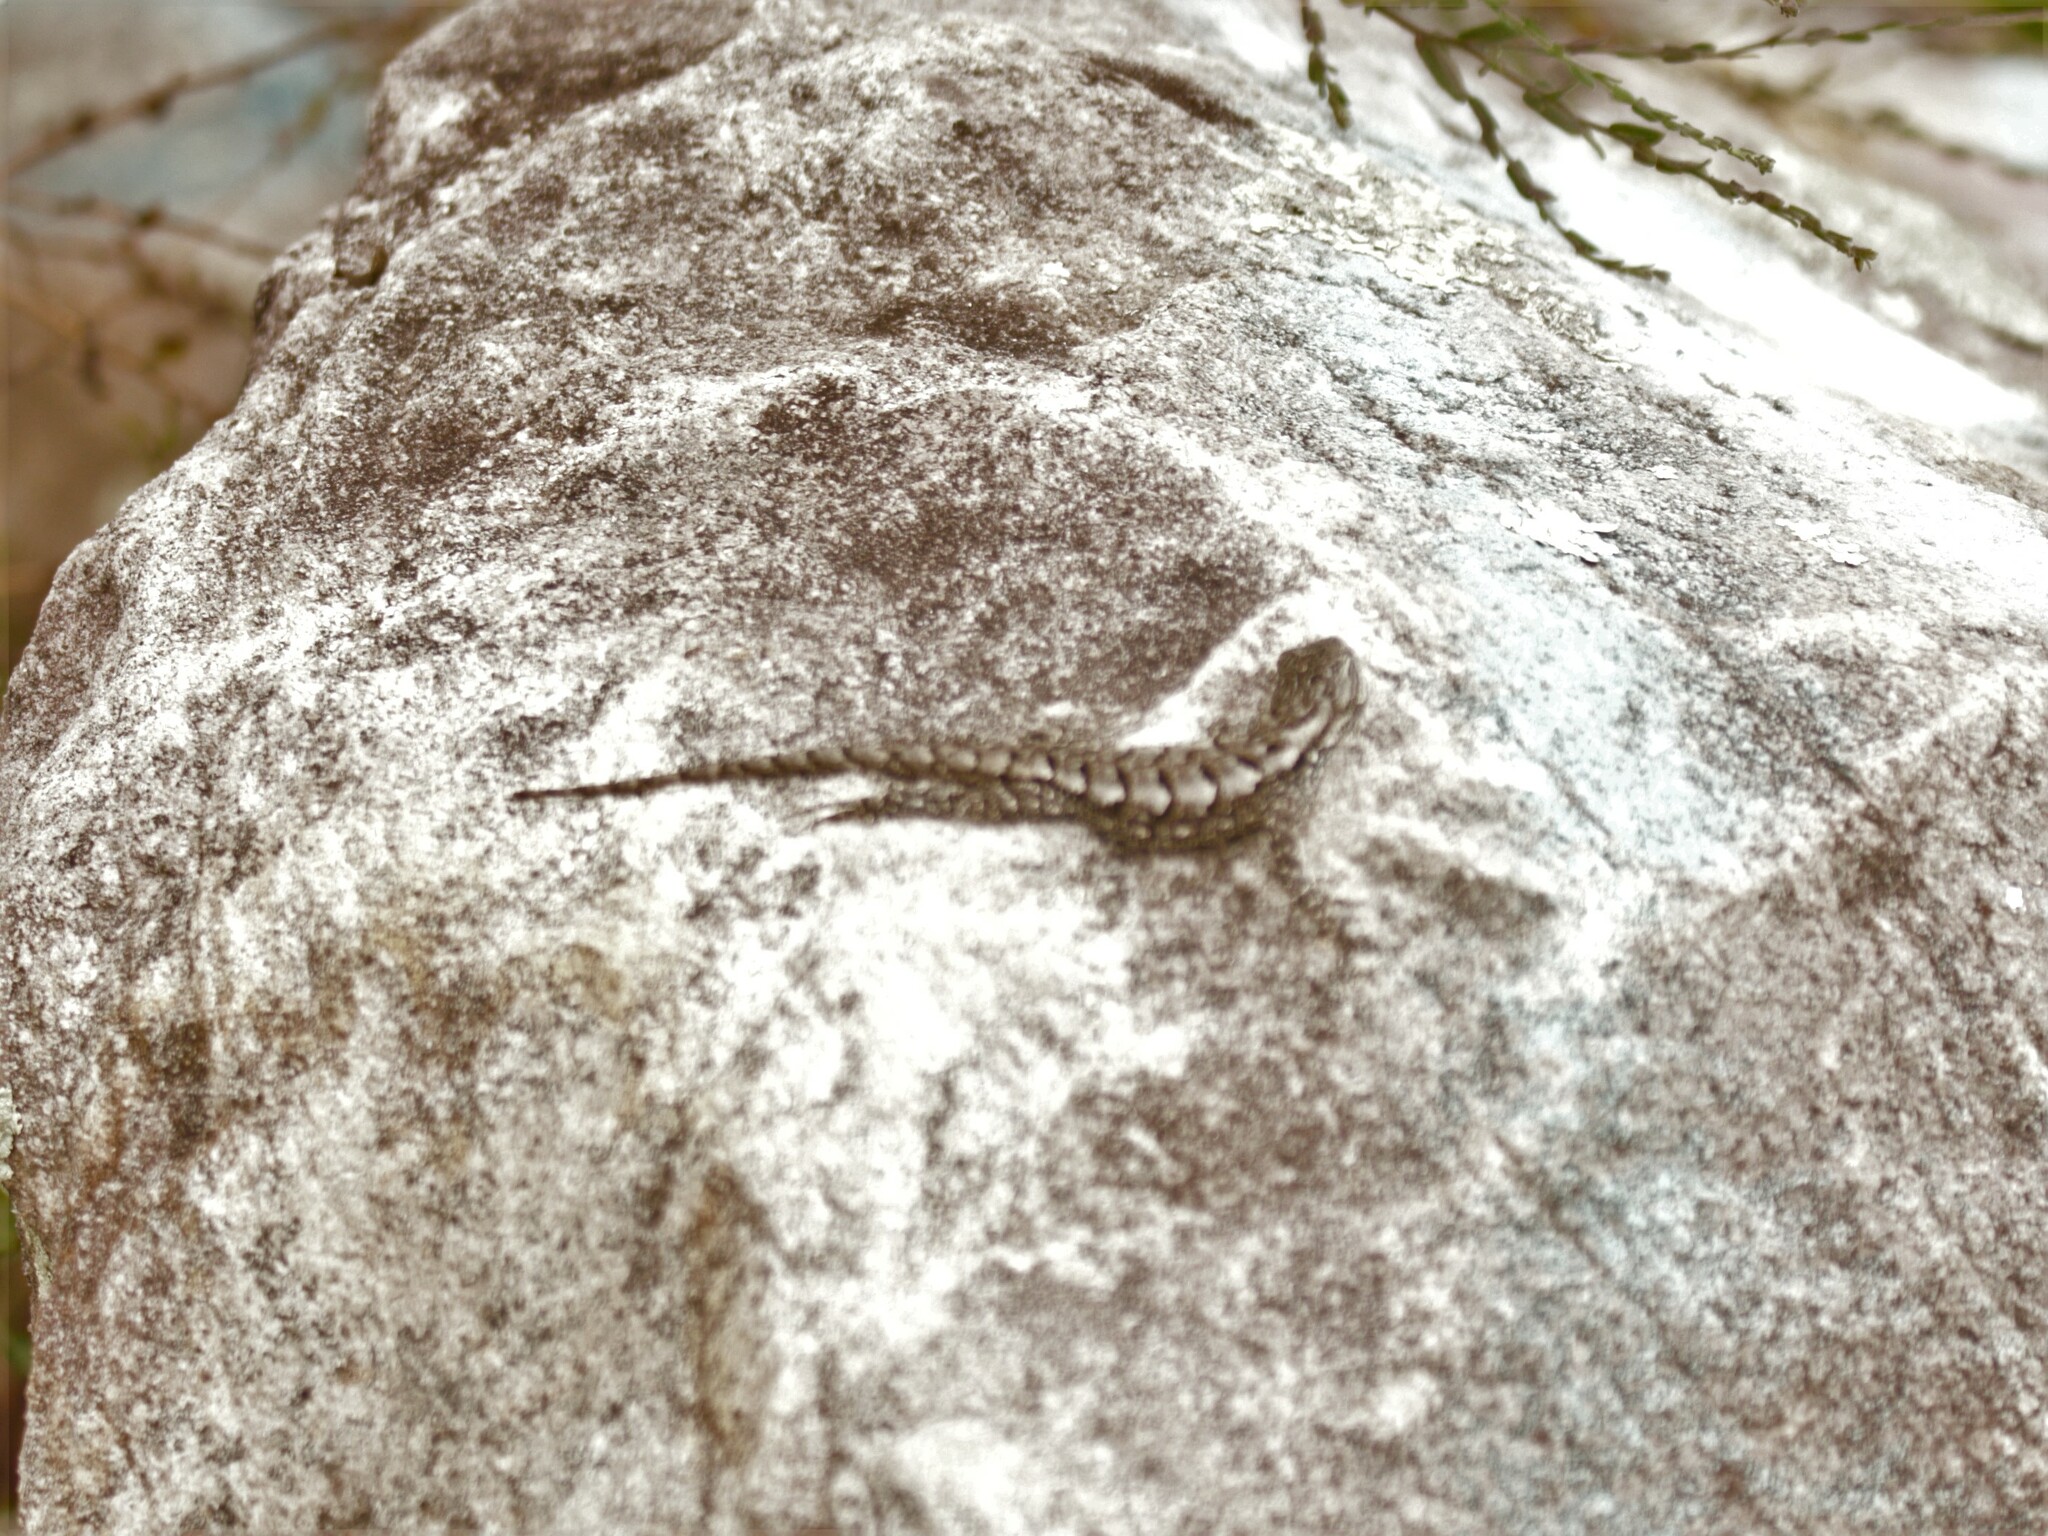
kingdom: Animalia
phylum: Chordata
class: Squamata
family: Phrynosomatidae
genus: Sceloporus
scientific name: Sceloporus undulatus
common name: Eastern fence lizard
